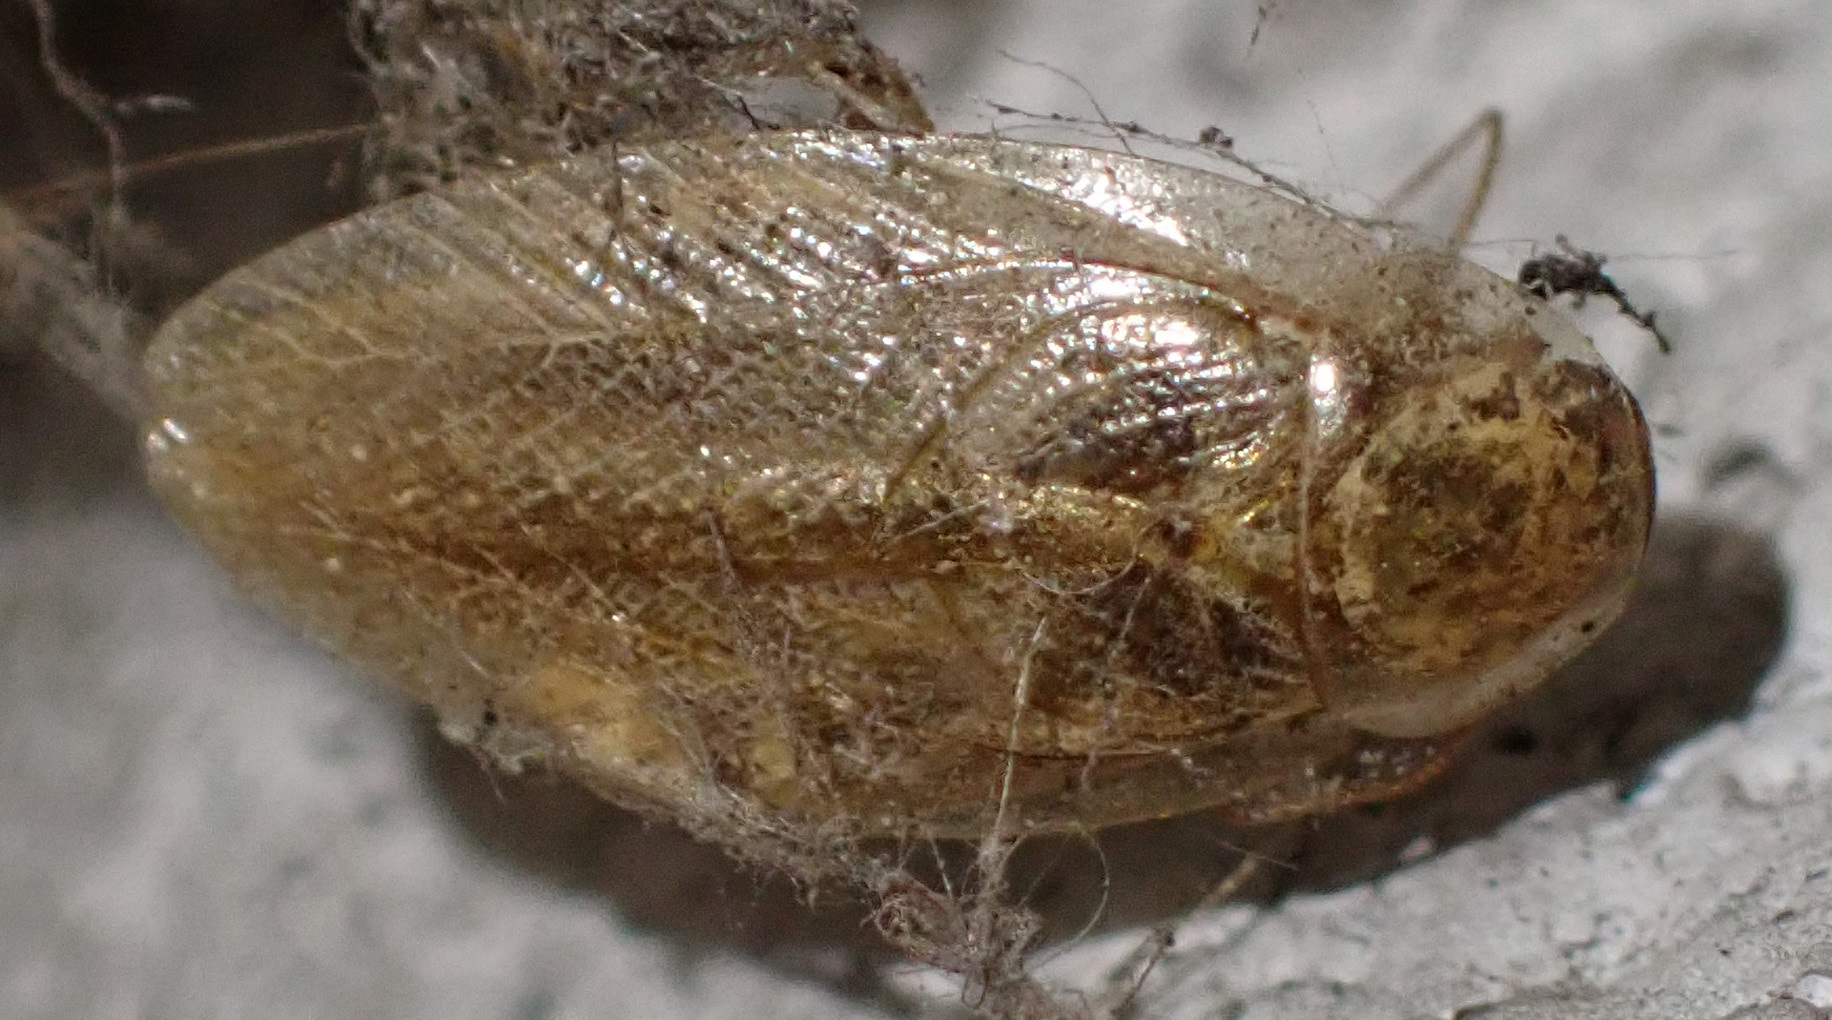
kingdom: Animalia
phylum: Arthropoda
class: Insecta
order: Blattodea
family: Ectobiidae
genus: Ectobius
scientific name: Ectobius vittiventris
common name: Garden cockroach
